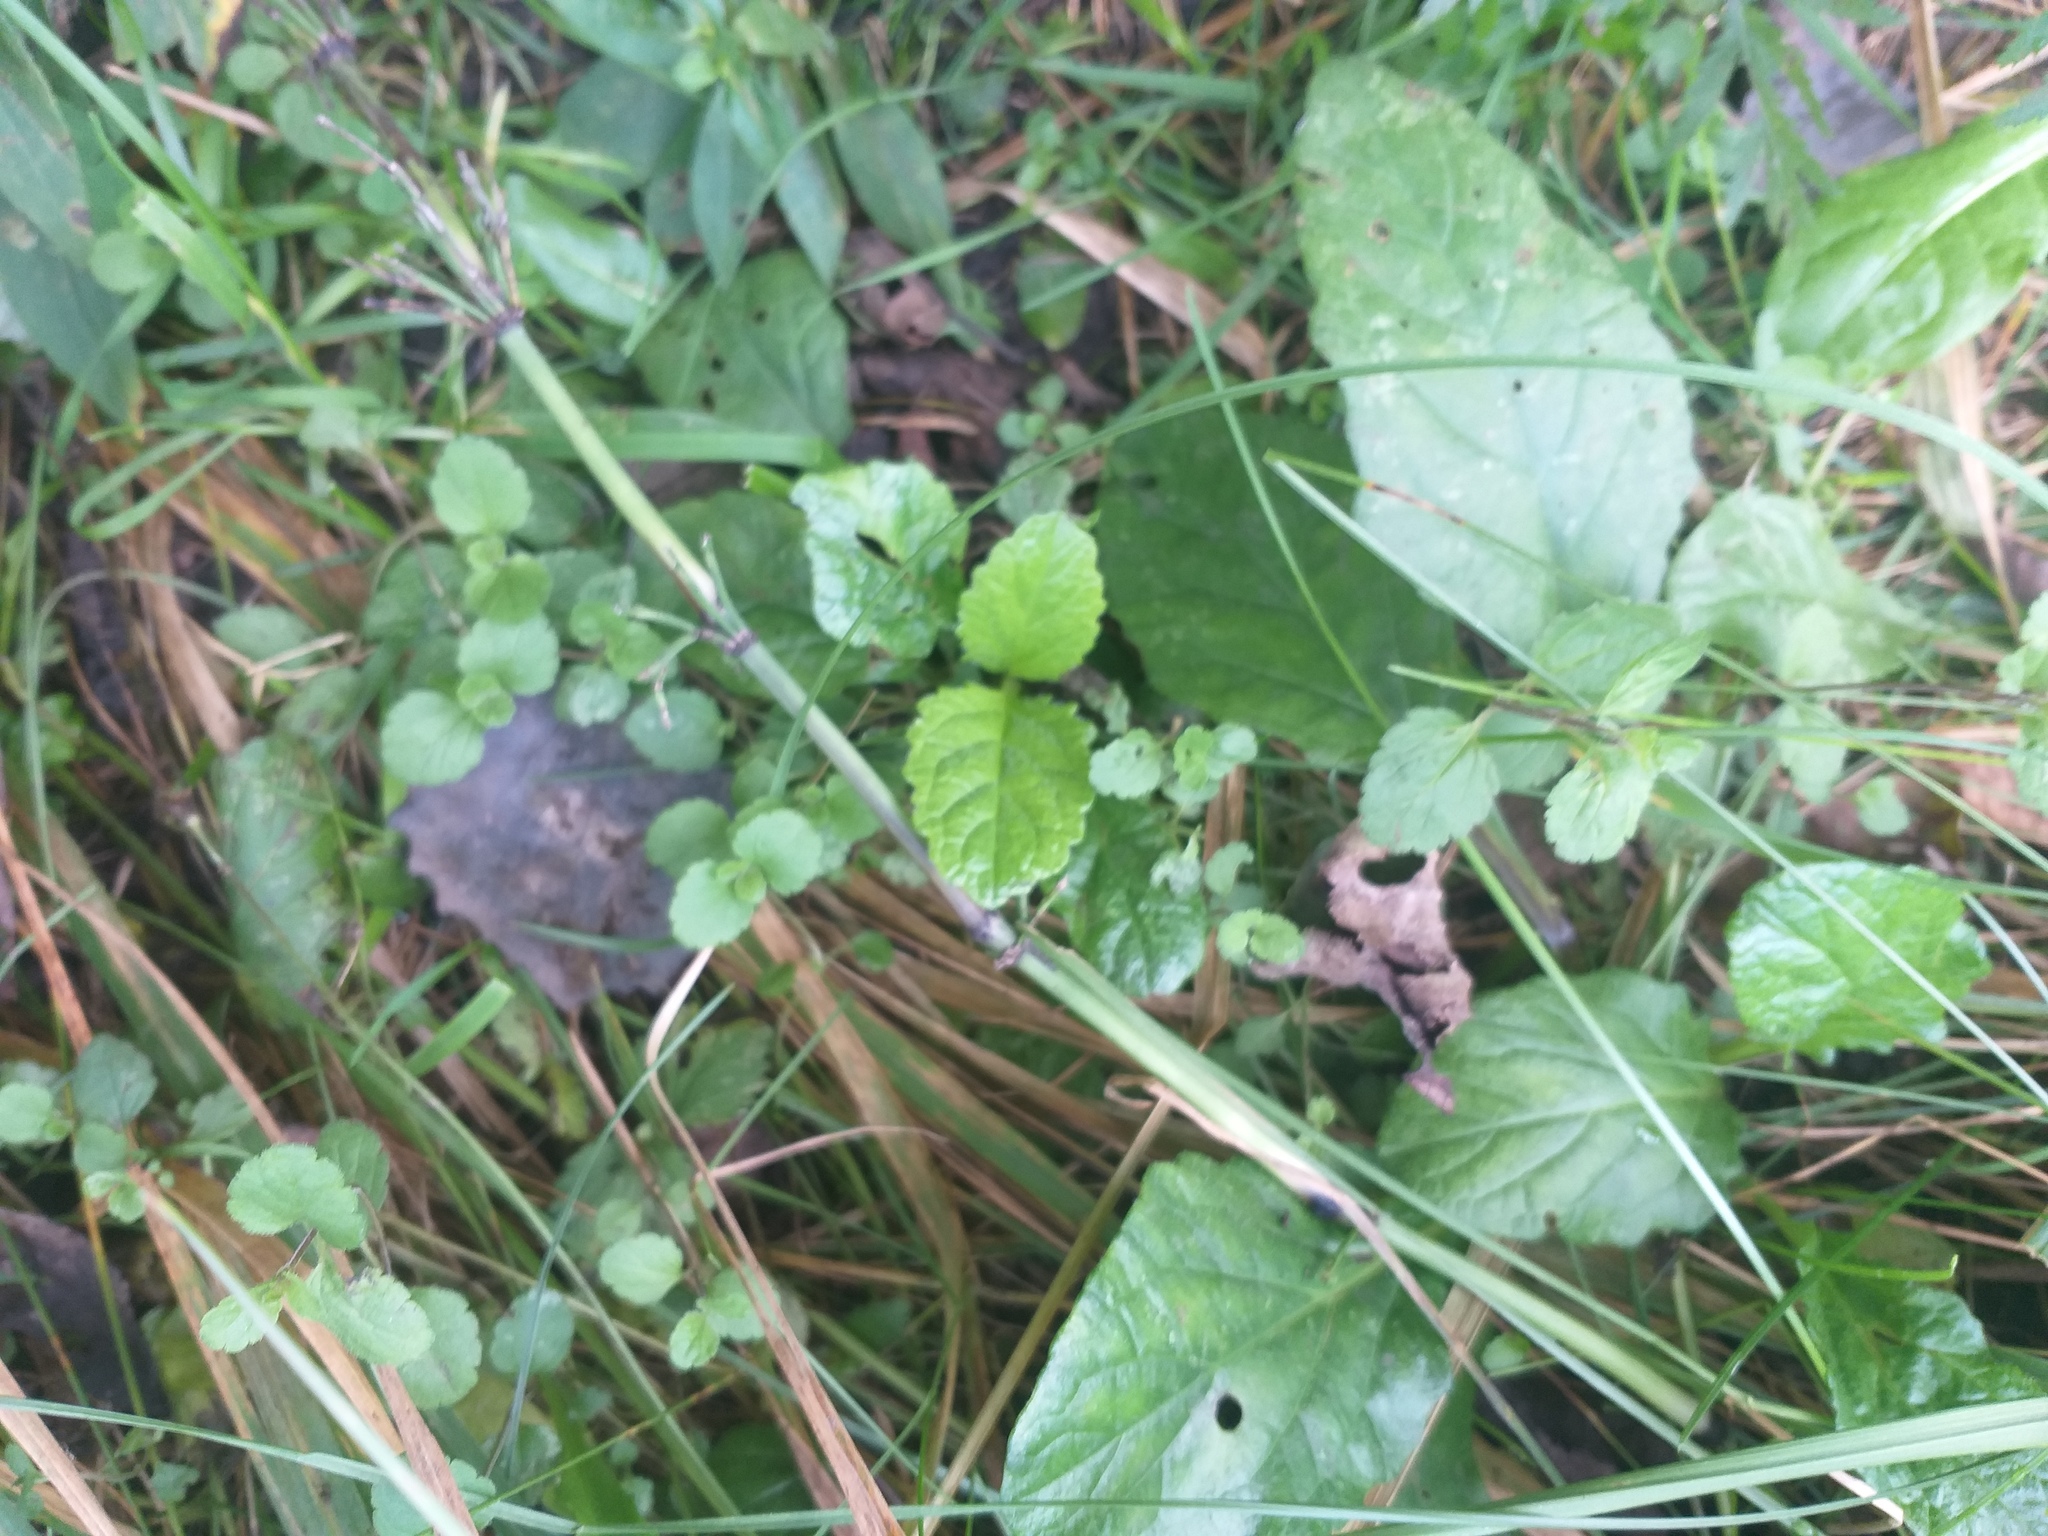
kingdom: Plantae
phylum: Tracheophyta
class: Magnoliopsida
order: Lamiales
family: Lamiaceae
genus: Ajuga
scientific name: Ajuga reptans
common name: Bugle
